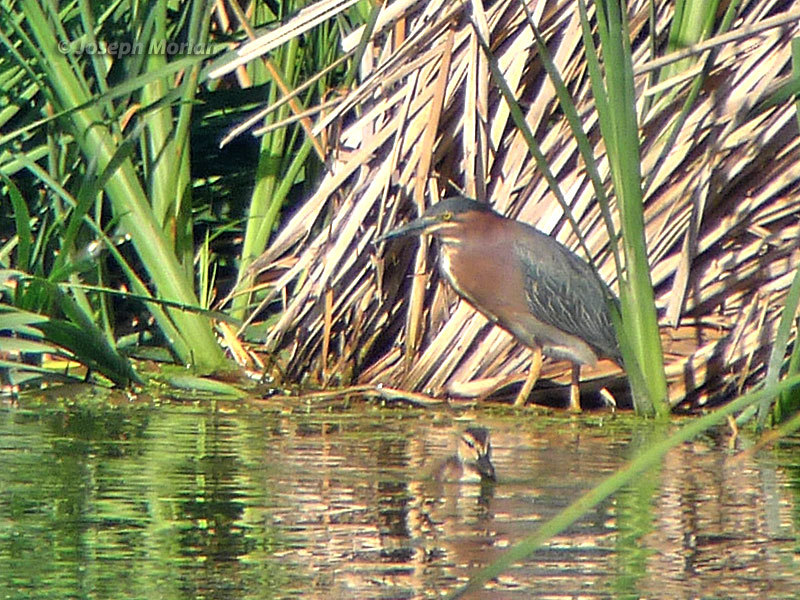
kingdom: Animalia
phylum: Chordata
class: Aves
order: Pelecaniformes
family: Ardeidae
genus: Butorides
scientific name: Butorides virescens
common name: Green heron
